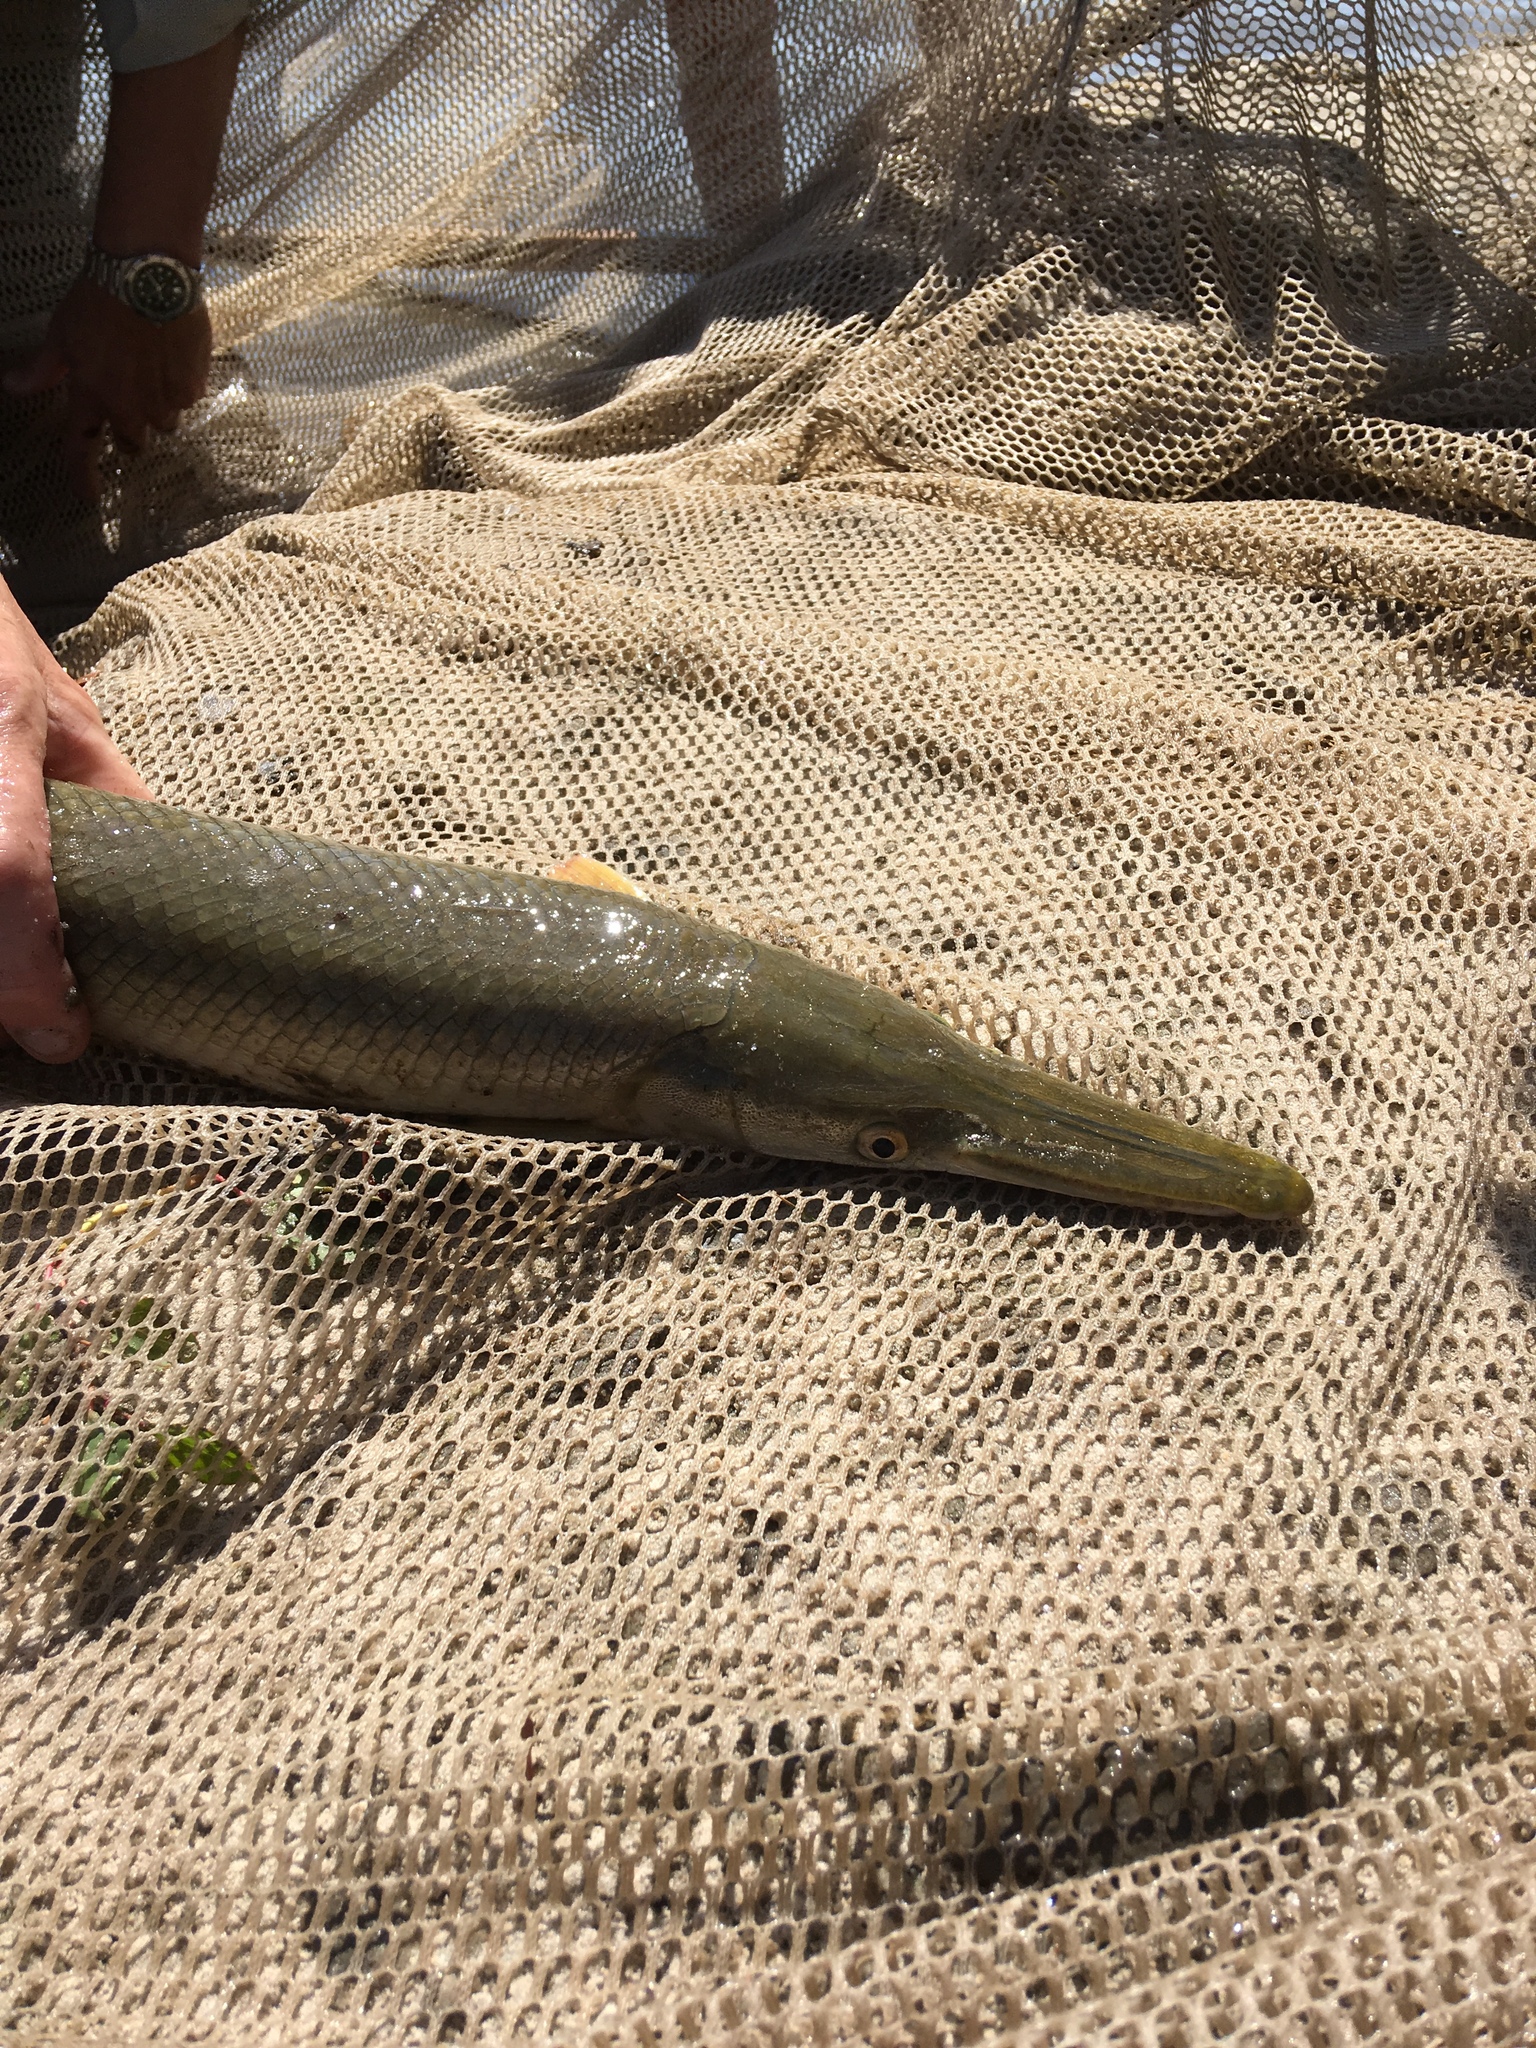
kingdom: Animalia
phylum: Chordata
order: Lepisosteiformes
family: Lepisosteidae
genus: Lepisosteus
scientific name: Lepisosteus platostomus
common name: Shortnose gar
